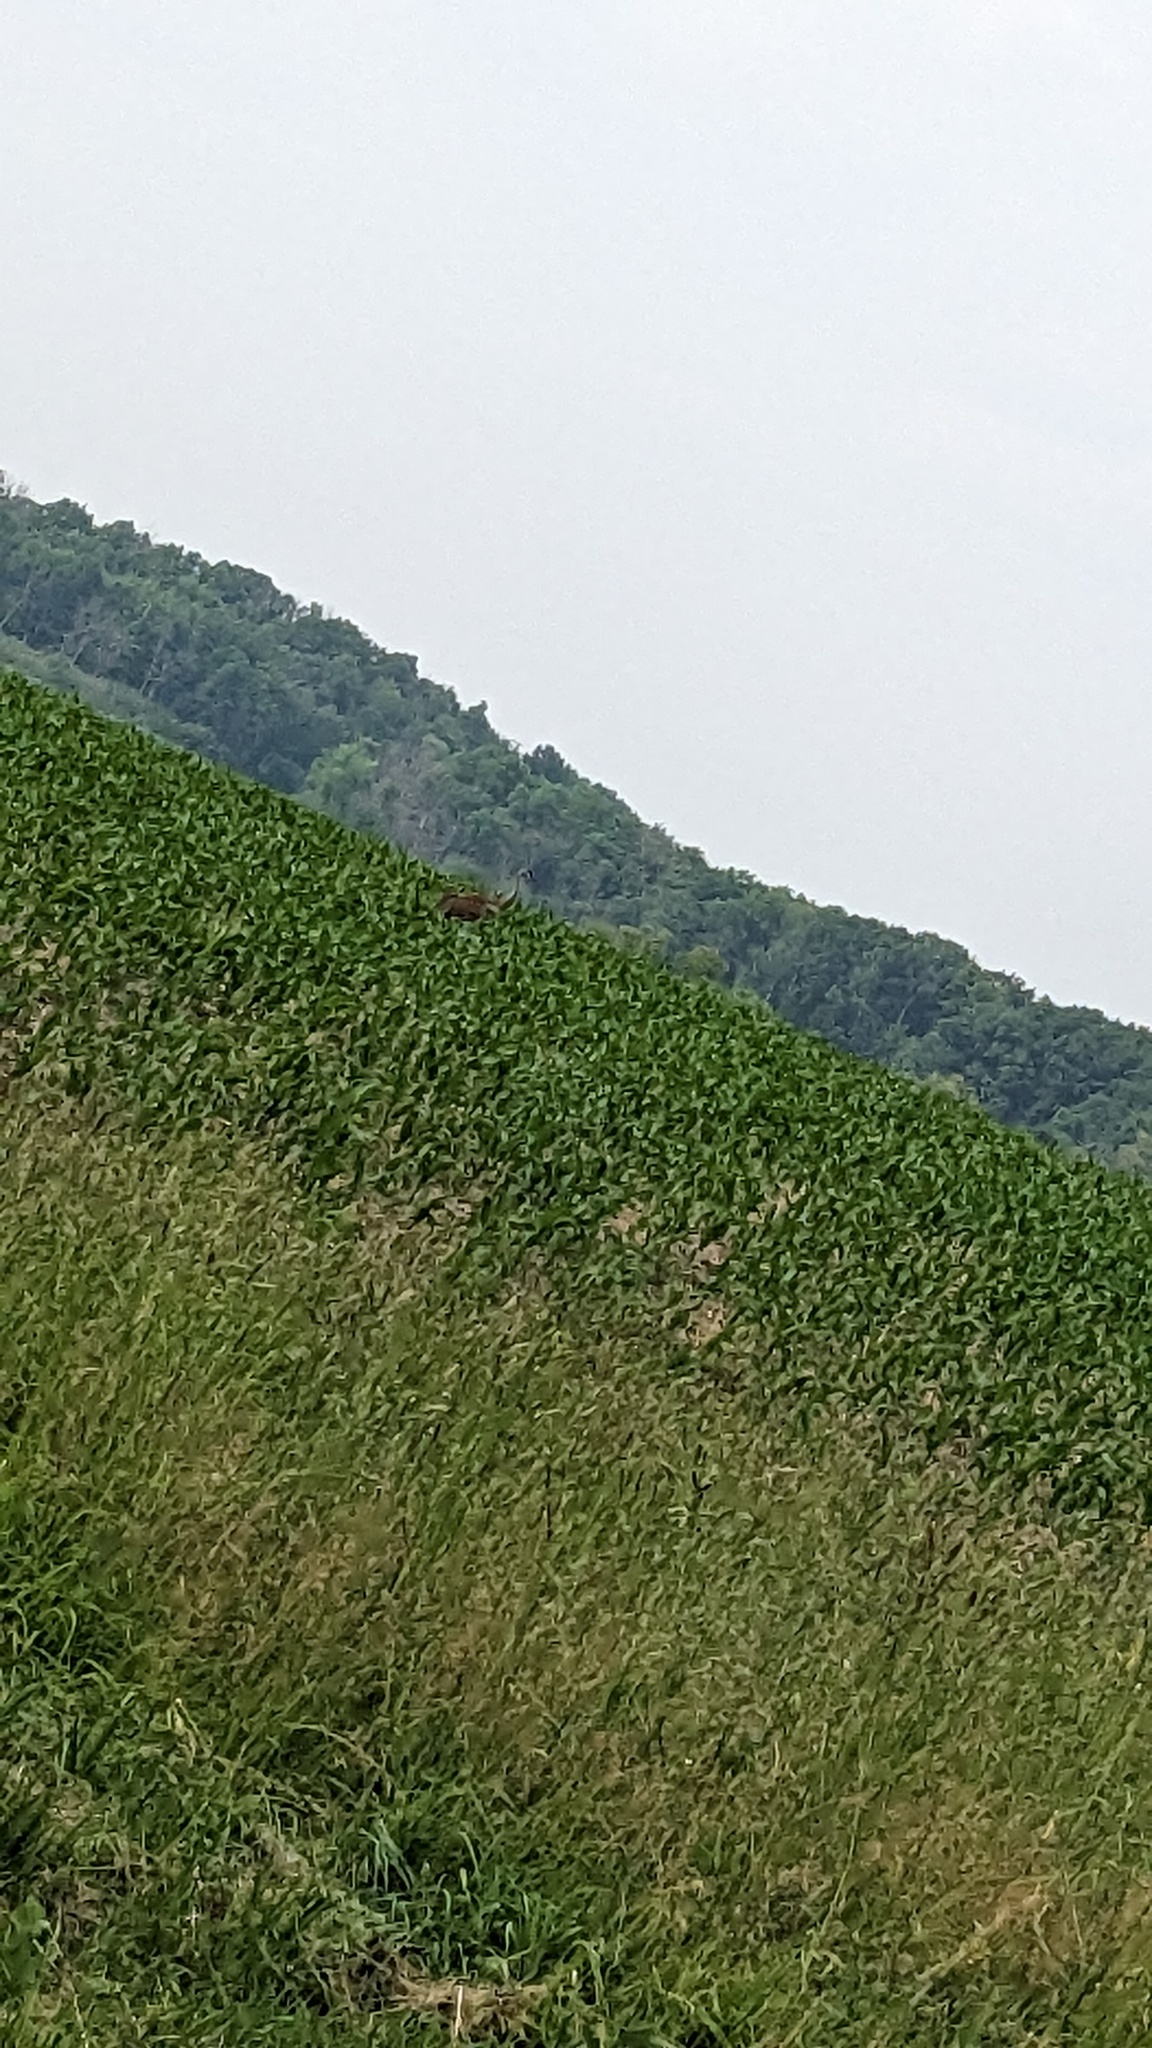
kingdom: Animalia
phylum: Chordata
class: Aves
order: Gruiformes
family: Gruidae
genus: Grus
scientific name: Grus canadensis
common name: Sandhill crane
